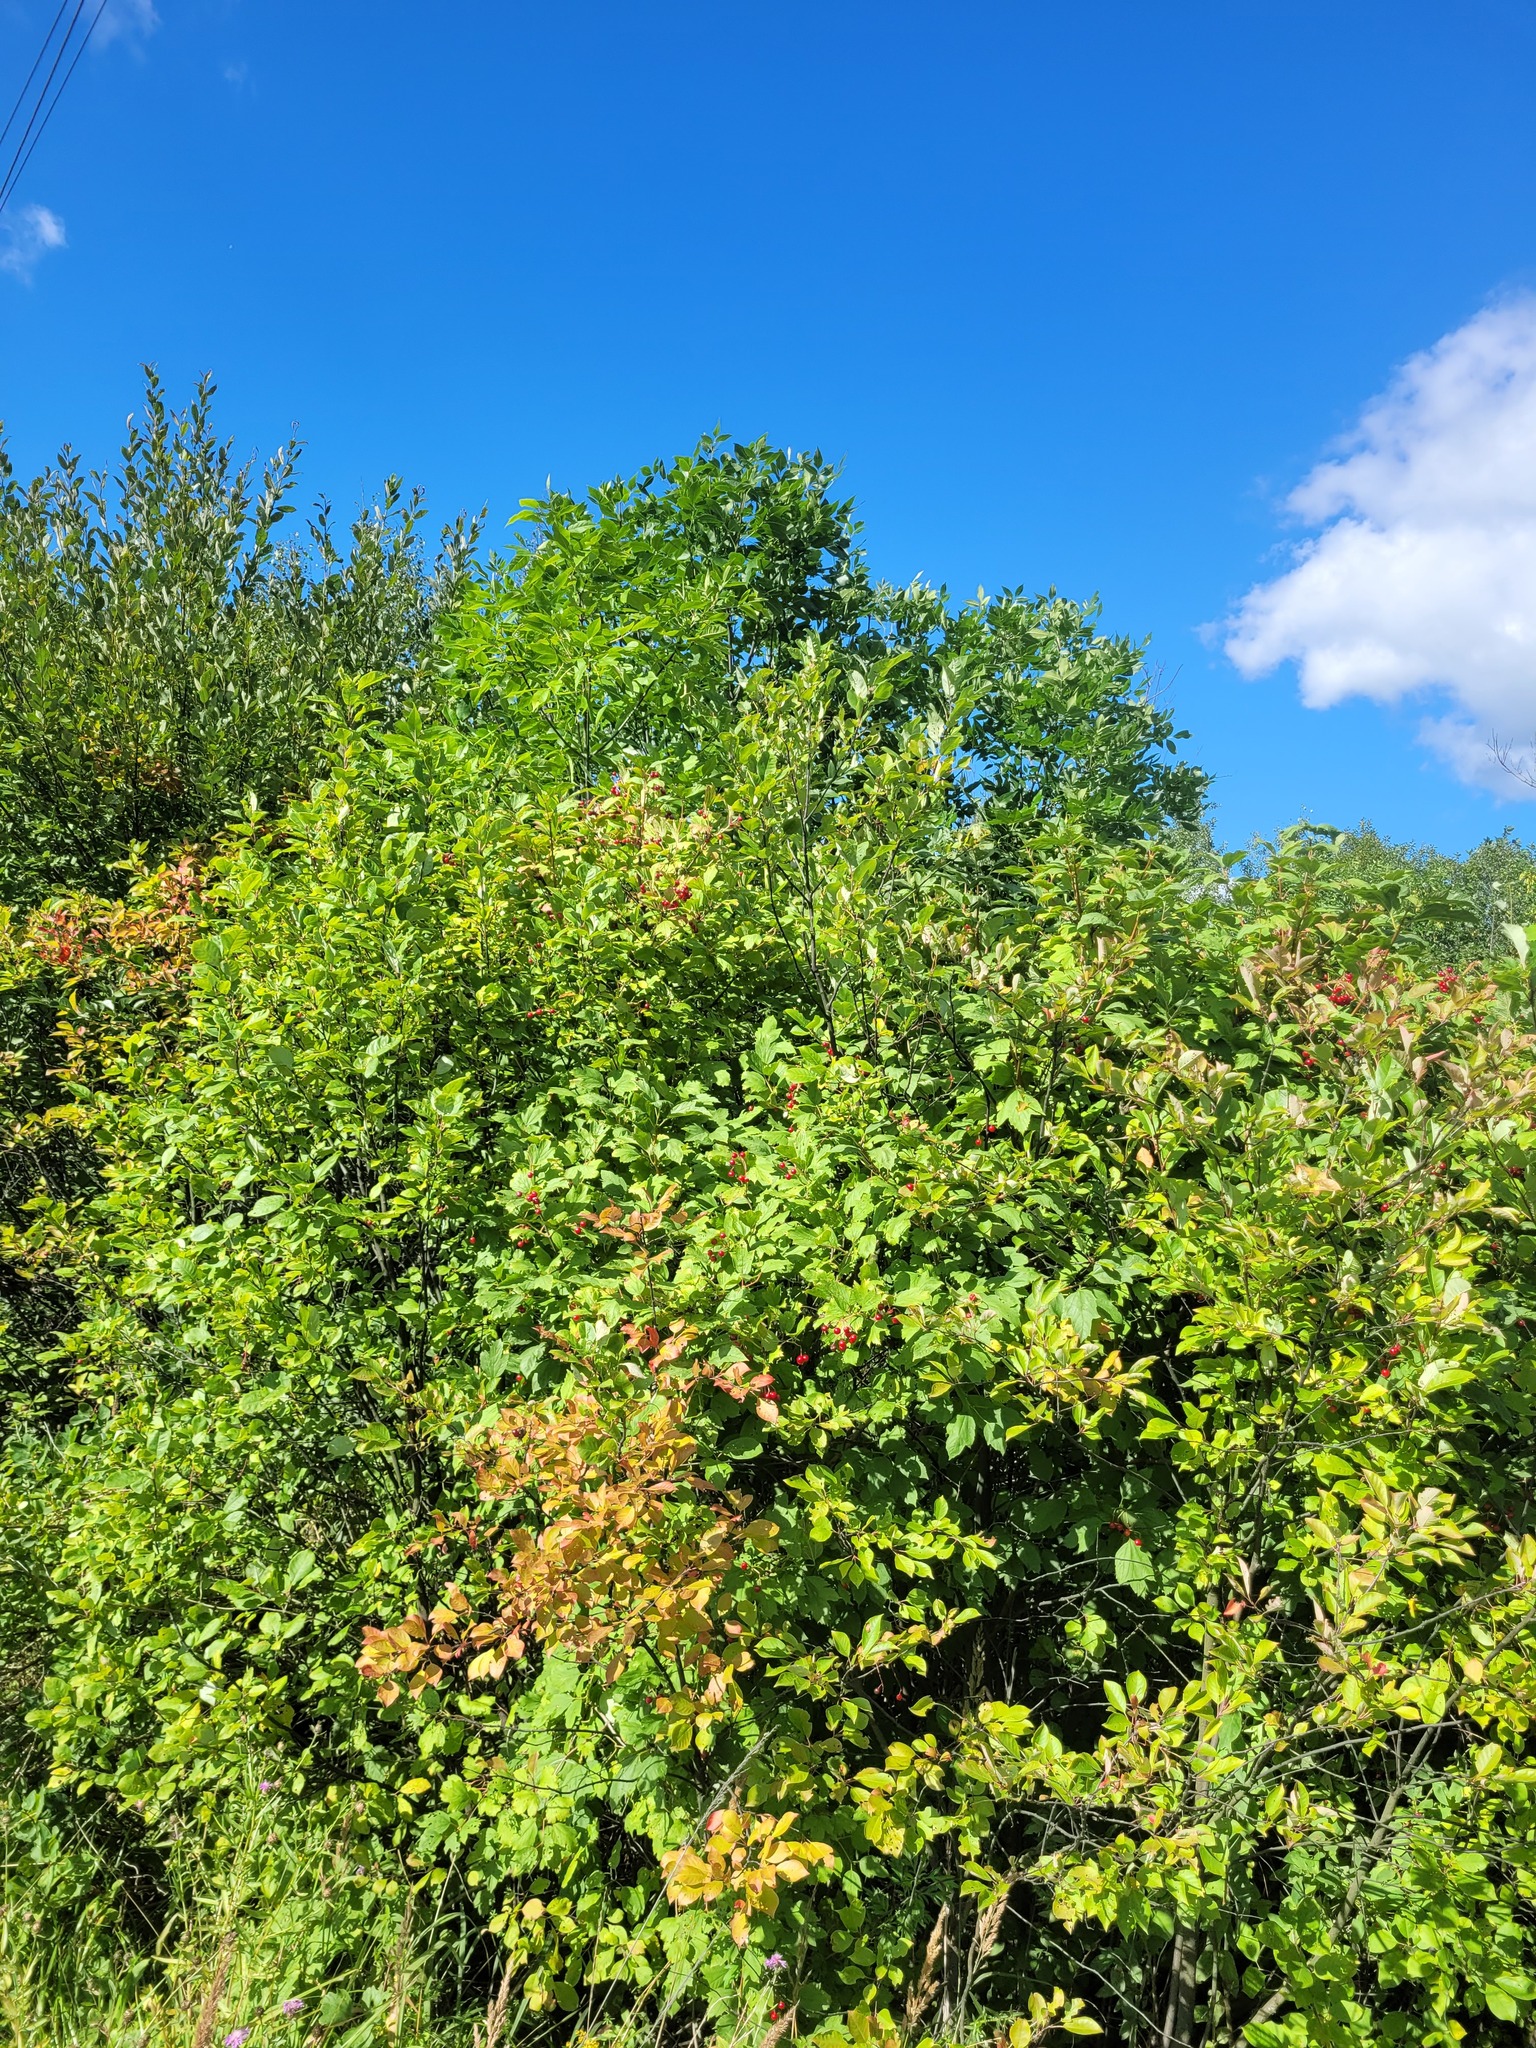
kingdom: Plantae
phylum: Tracheophyta
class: Magnoliopsida
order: Dipsacales
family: Viburnaceae
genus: Viburnum
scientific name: Viburnum opulus
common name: Guelder-rose
